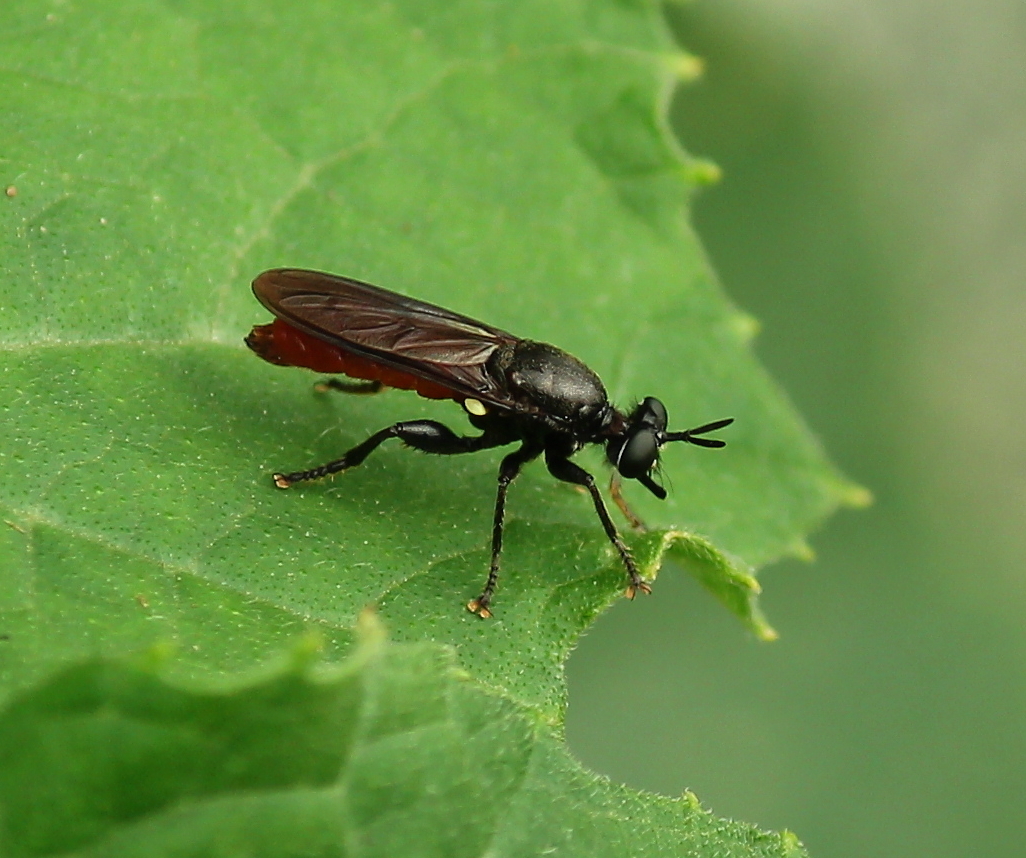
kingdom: Animalia
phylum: Arthropoda
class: Insecta
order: Diptera
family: Asilidae
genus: Lampria
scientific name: Lampria bicolor
